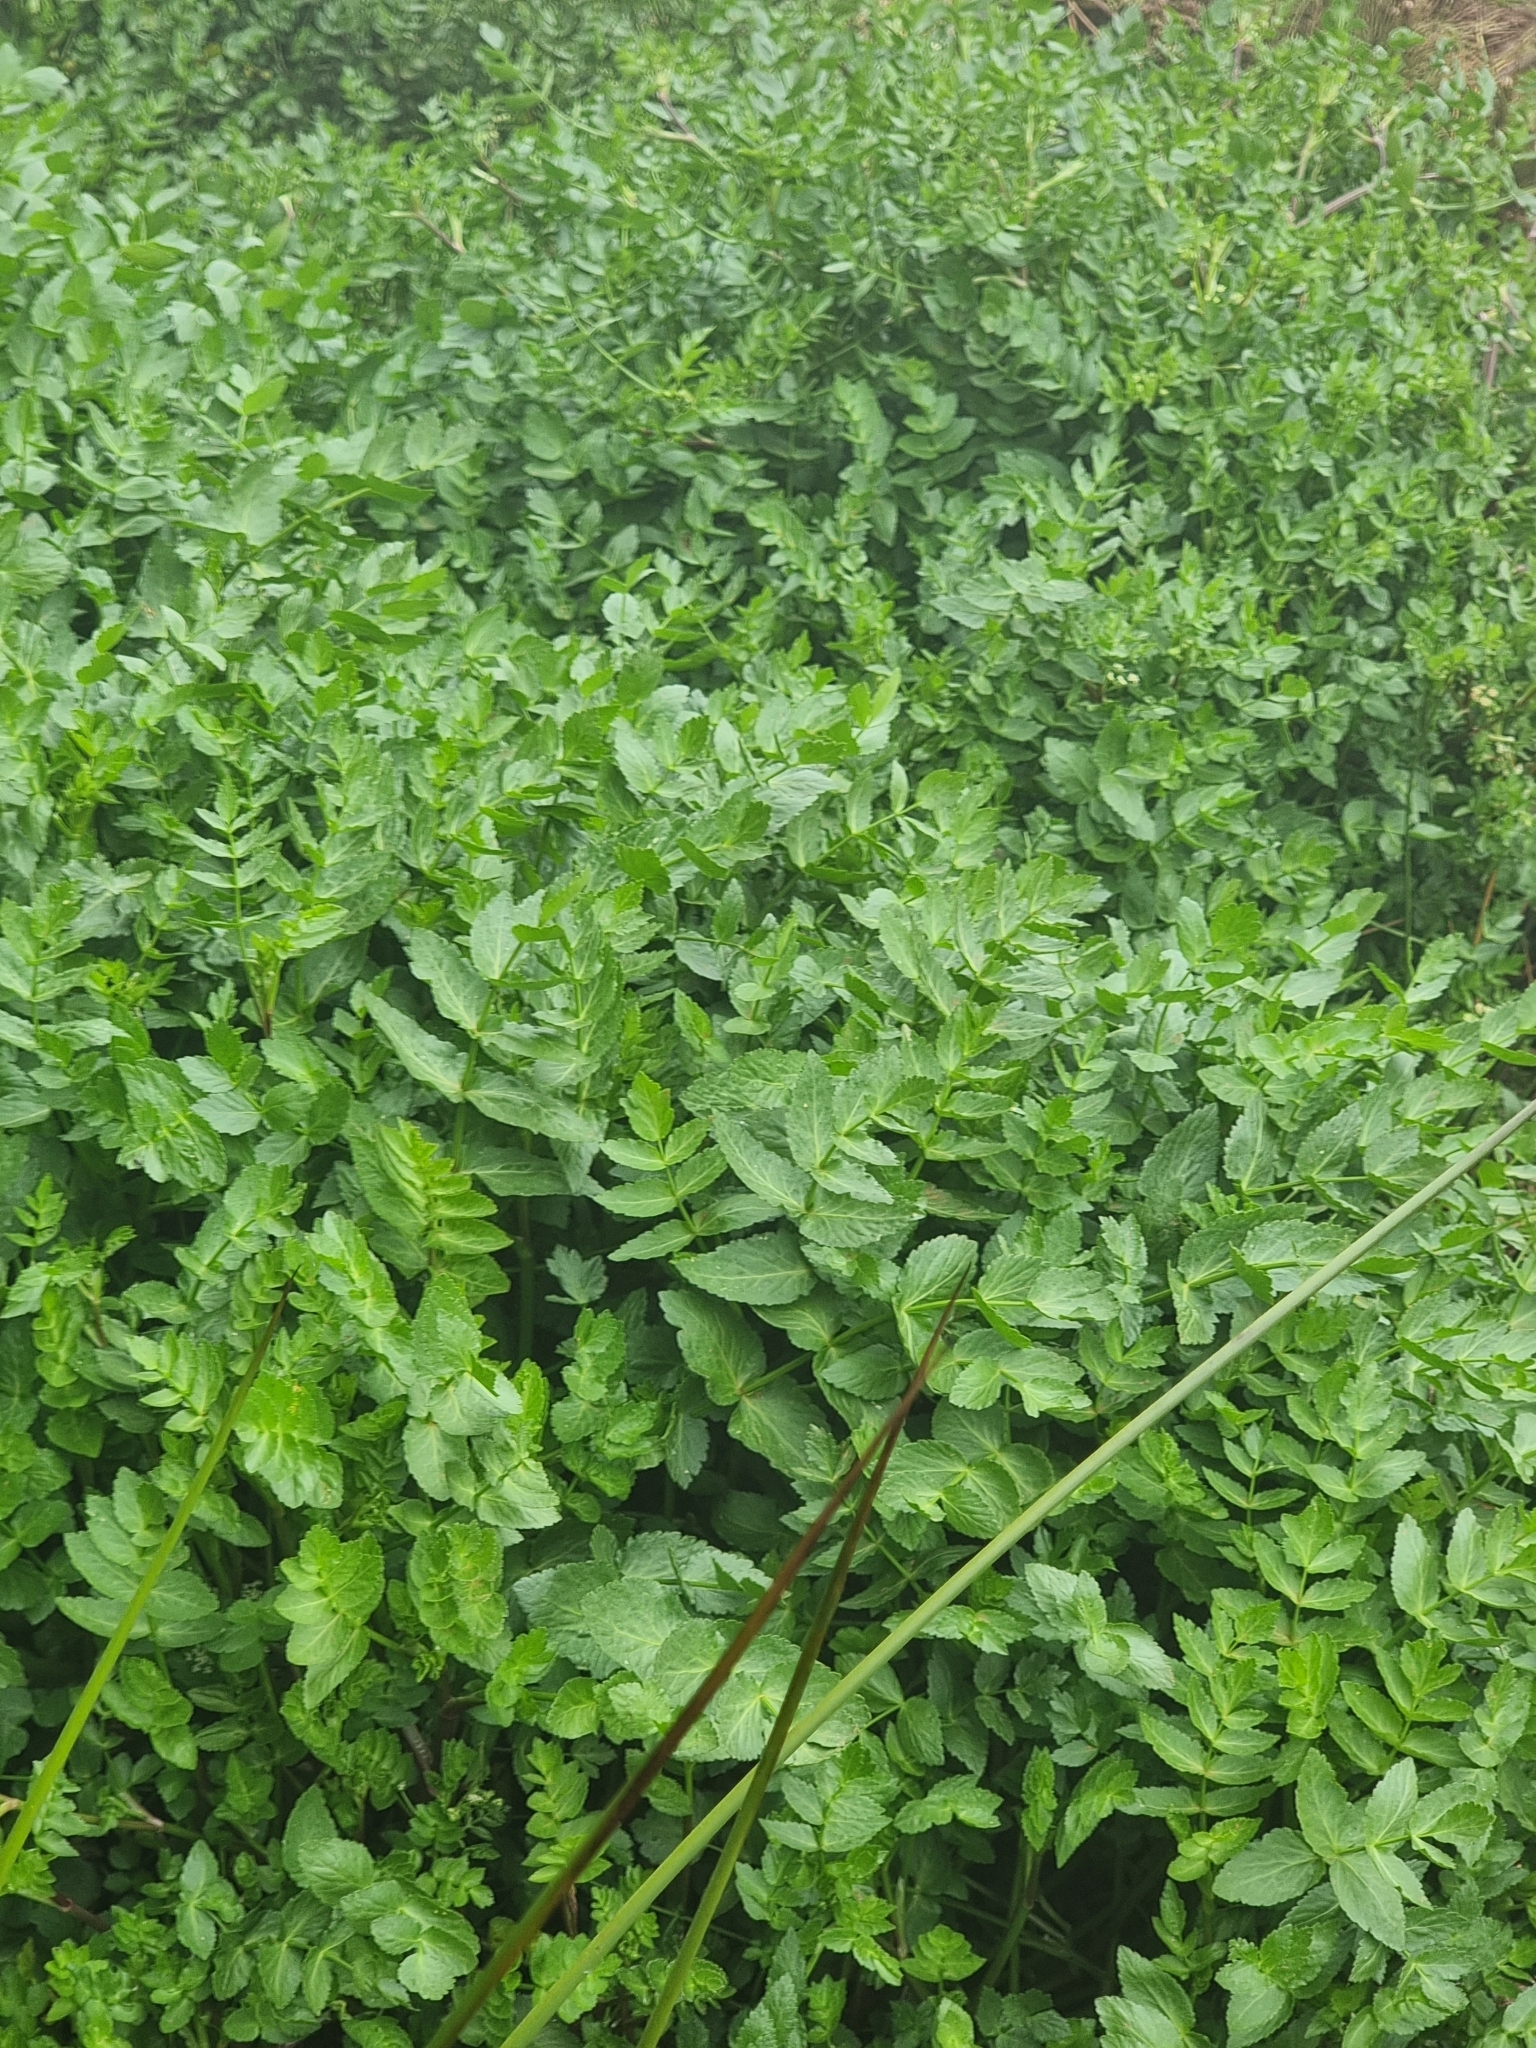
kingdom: Plantae
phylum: Tracheophyta
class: Magnoliopsida
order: Apiales
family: Apiaceae
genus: Helosciadium
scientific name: Helosciadium nodiflorum
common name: Fool's-watercress
